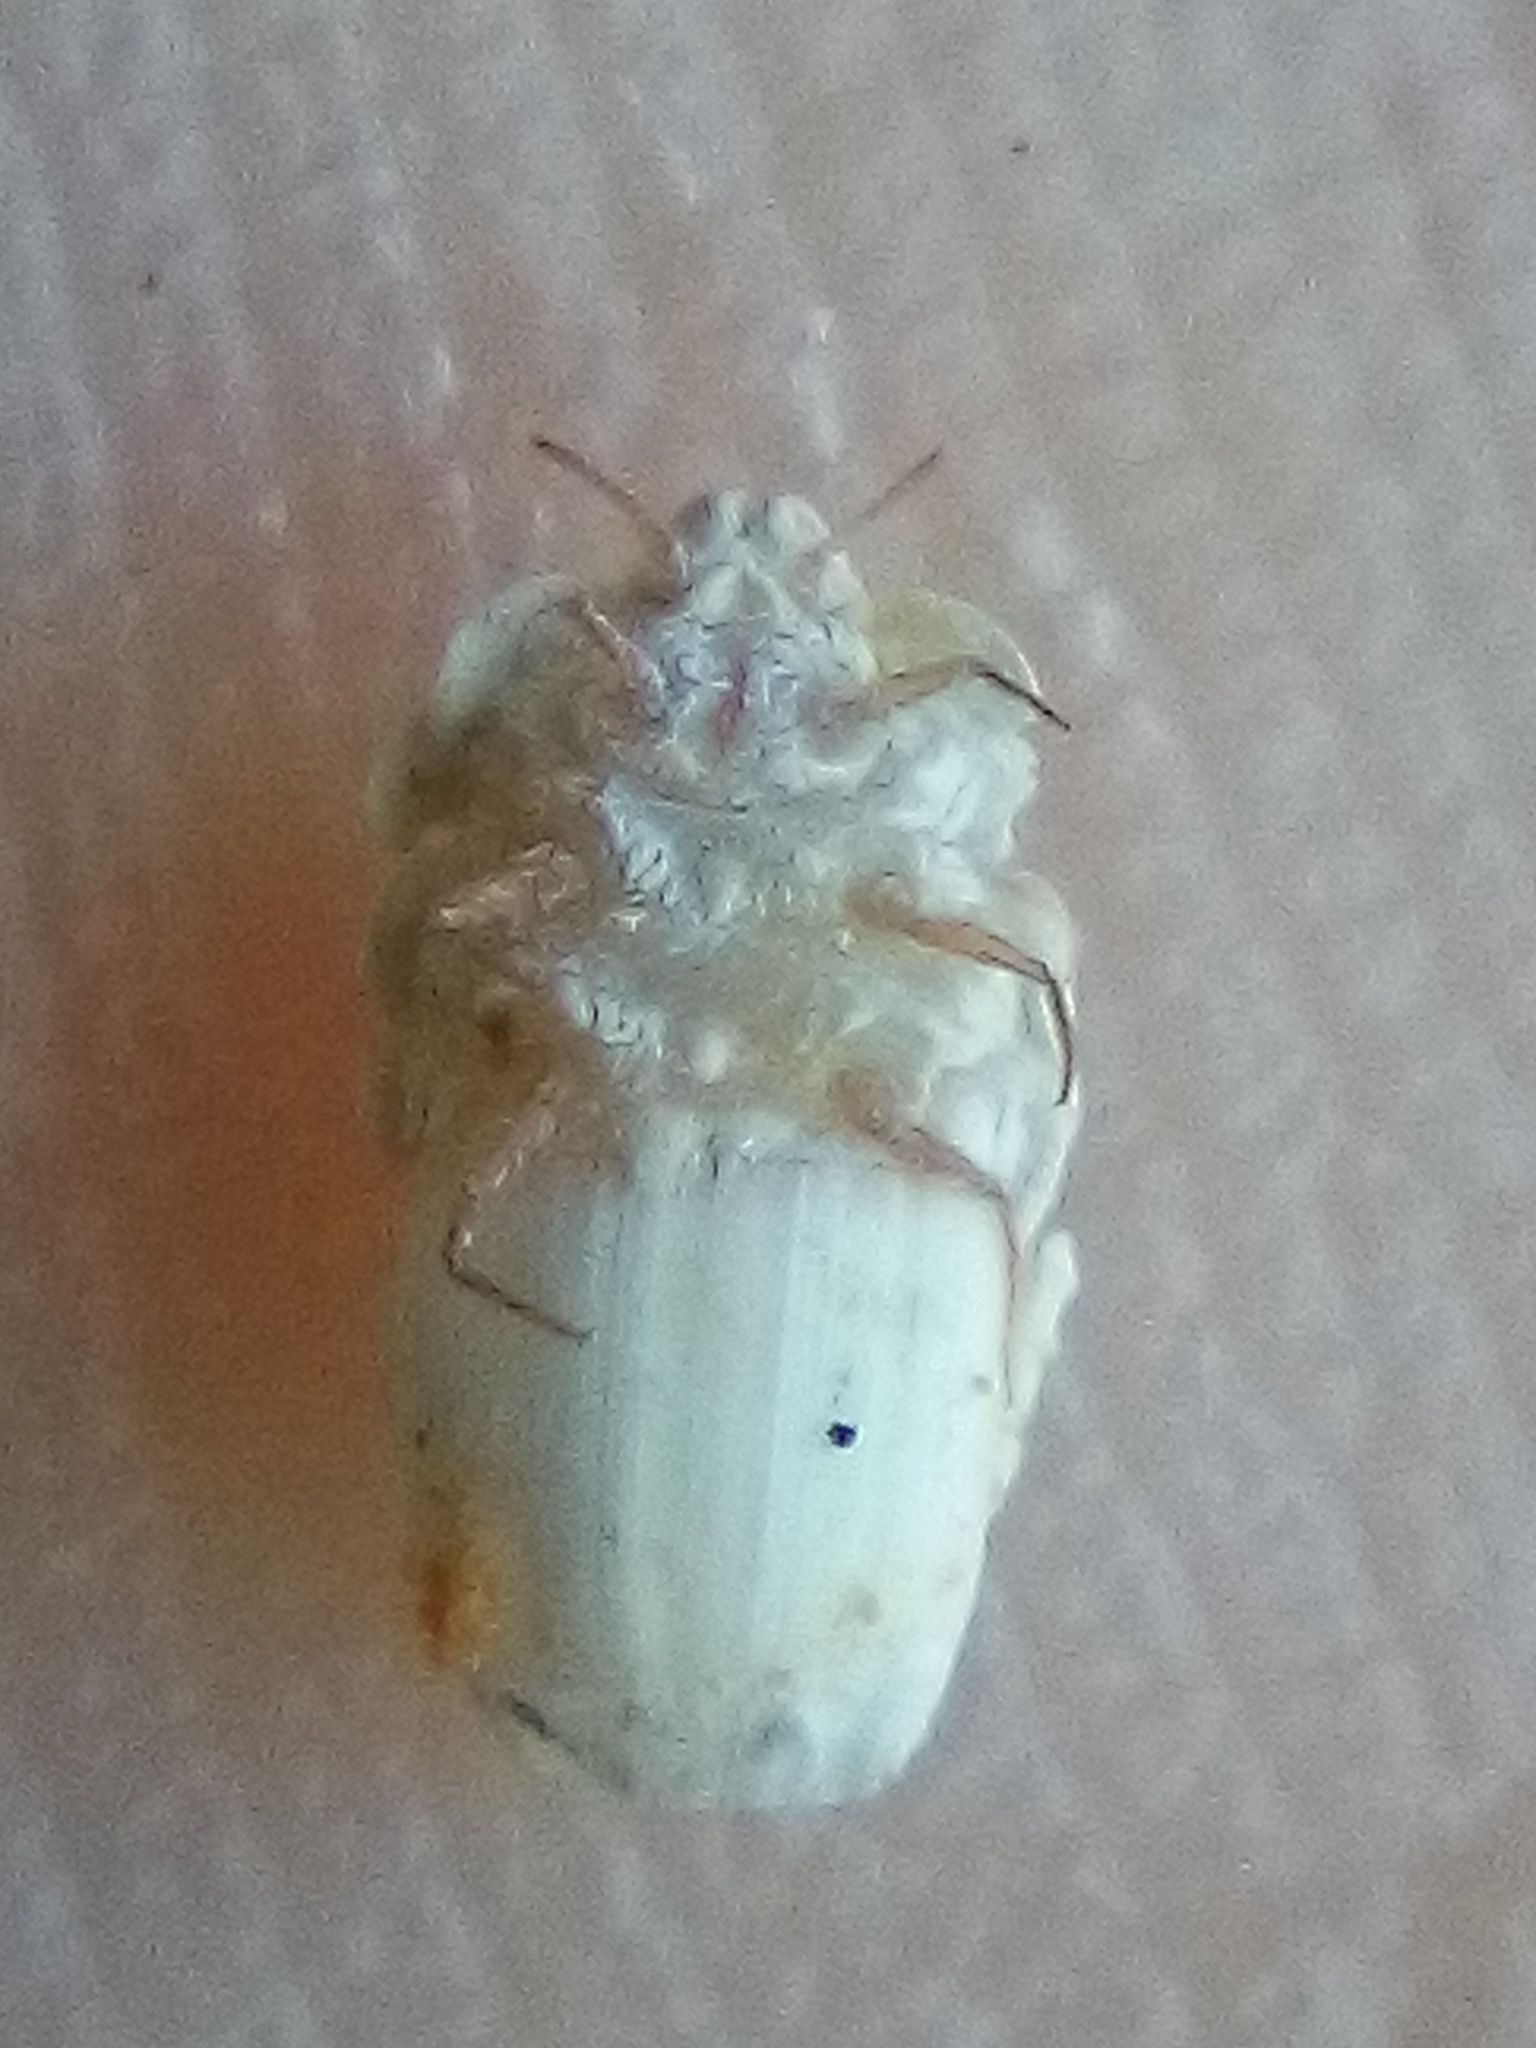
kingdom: Animalia
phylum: Arthropoda
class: Insecta
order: Hemiptera
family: Ortheziidae
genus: Newsteadia
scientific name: Newsteadia gullanae
